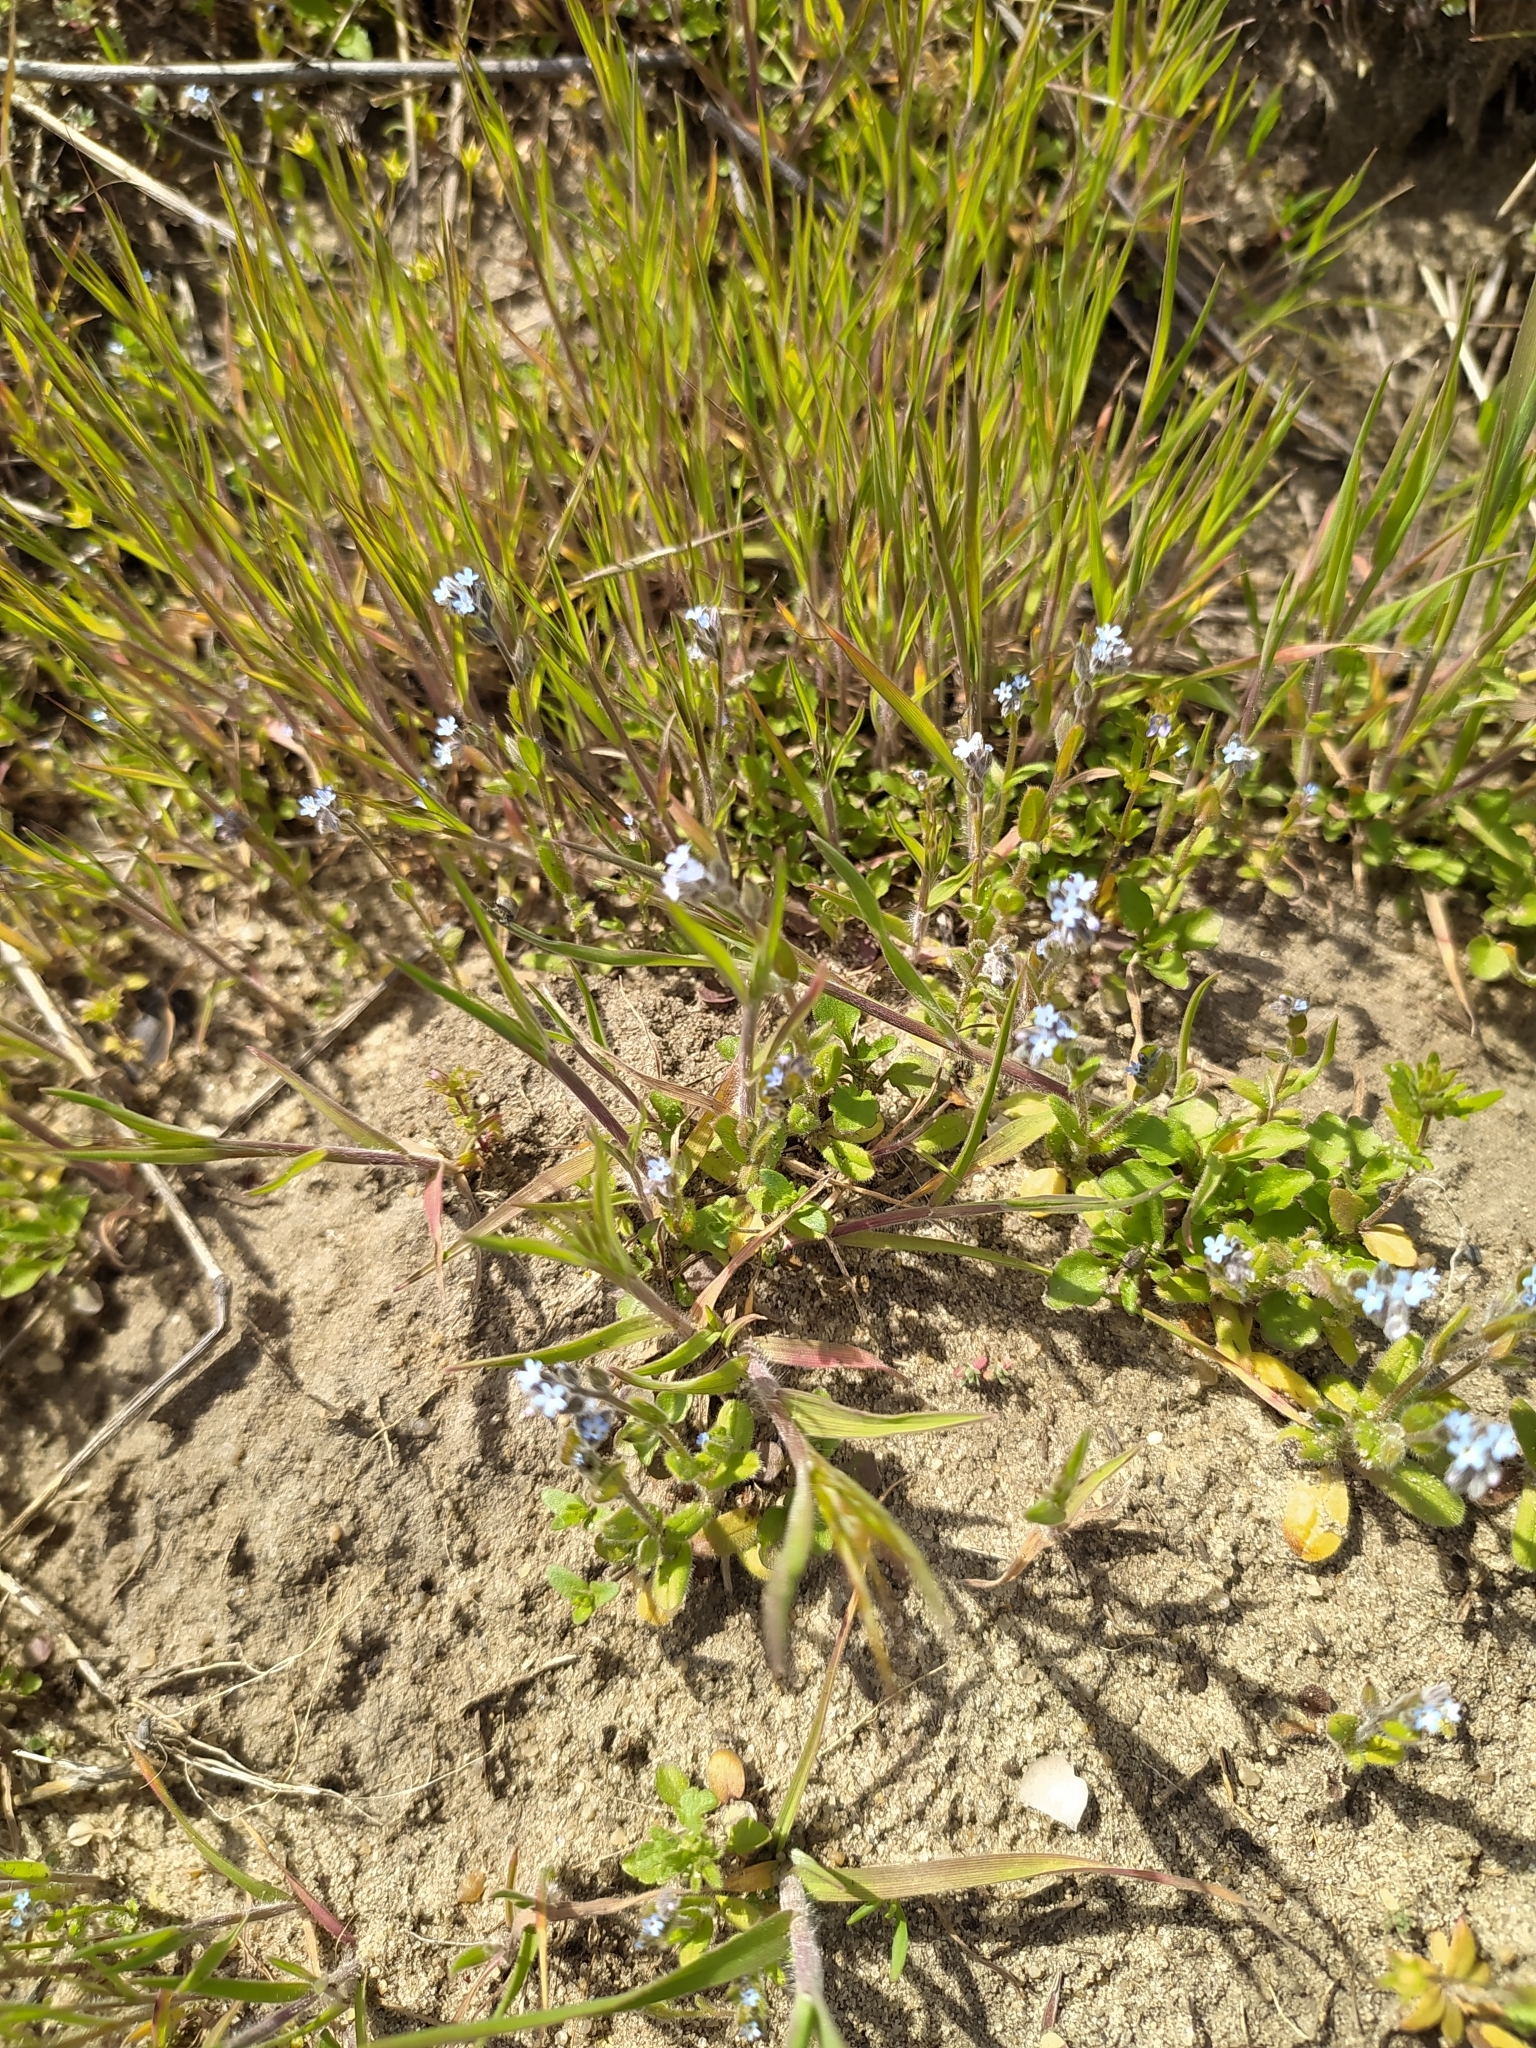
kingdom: Plantae
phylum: Tracheophyta
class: Magnoliopsida
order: Boraginales
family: Boraginaceae
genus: Myosotis
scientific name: Myosotis stricta
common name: Strict forget-me-not
